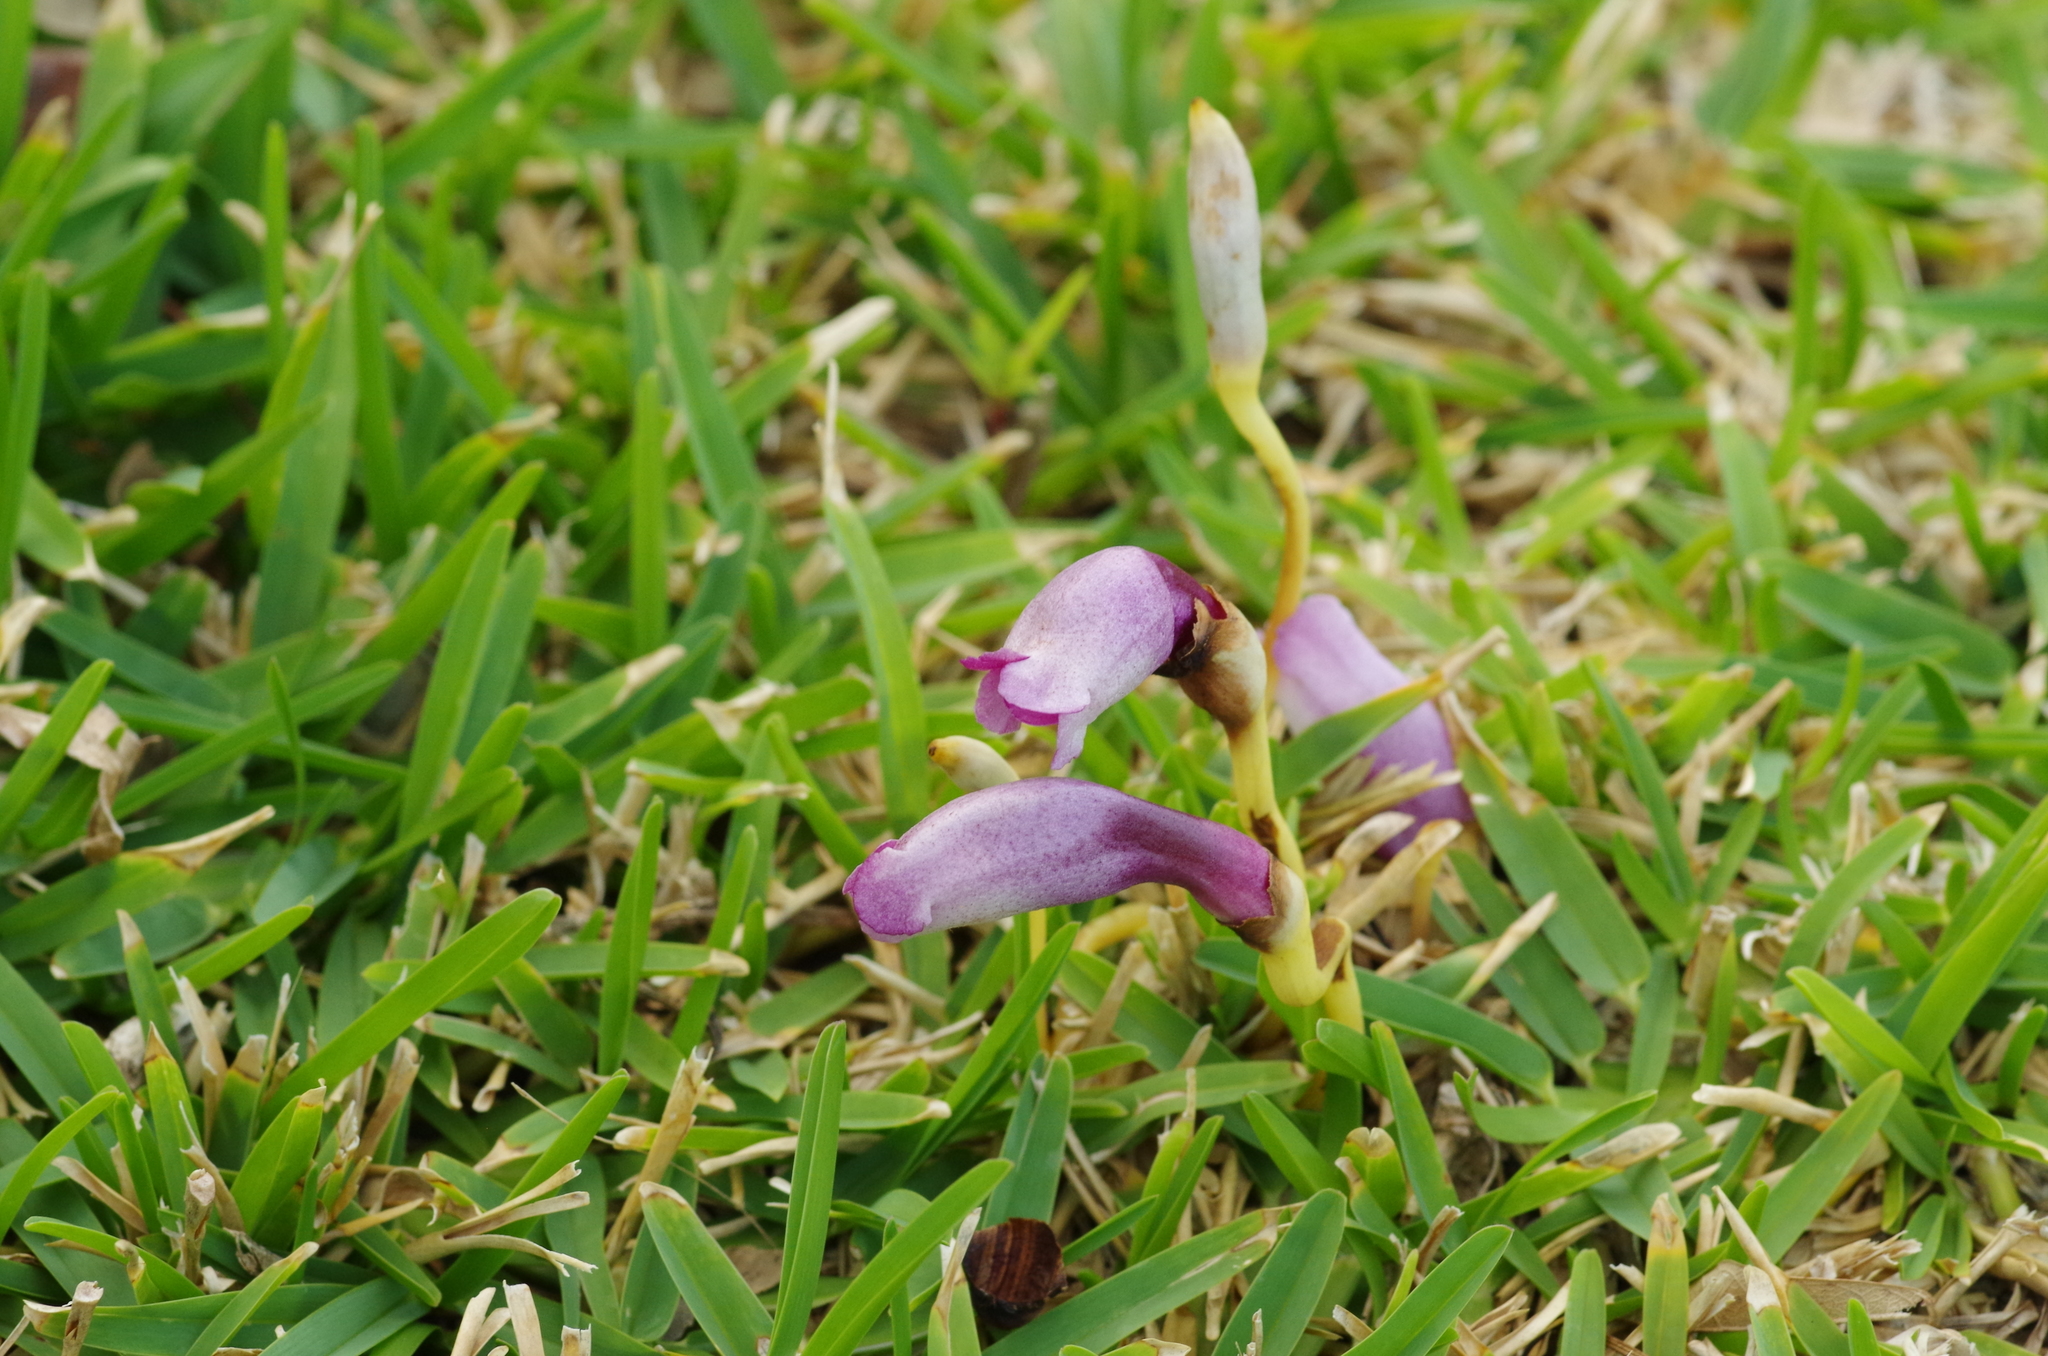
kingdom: Plantae
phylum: Tracheophyta
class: Magnoliopsida
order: Lamiales
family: Orobanchaceae
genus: Aeginetia
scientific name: Aeginetia indica
